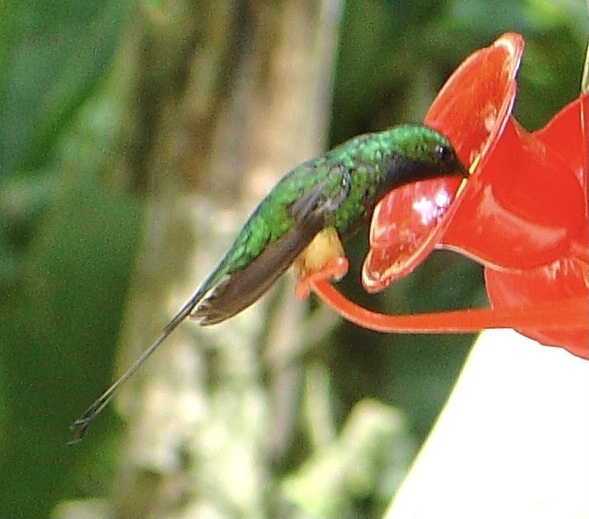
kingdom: Animalia
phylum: Chordata
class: Aves
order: Apodiformes
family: Trochilidae
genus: Ocreatus
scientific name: Ocreatus addae
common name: Rufous-booted racket-tail
